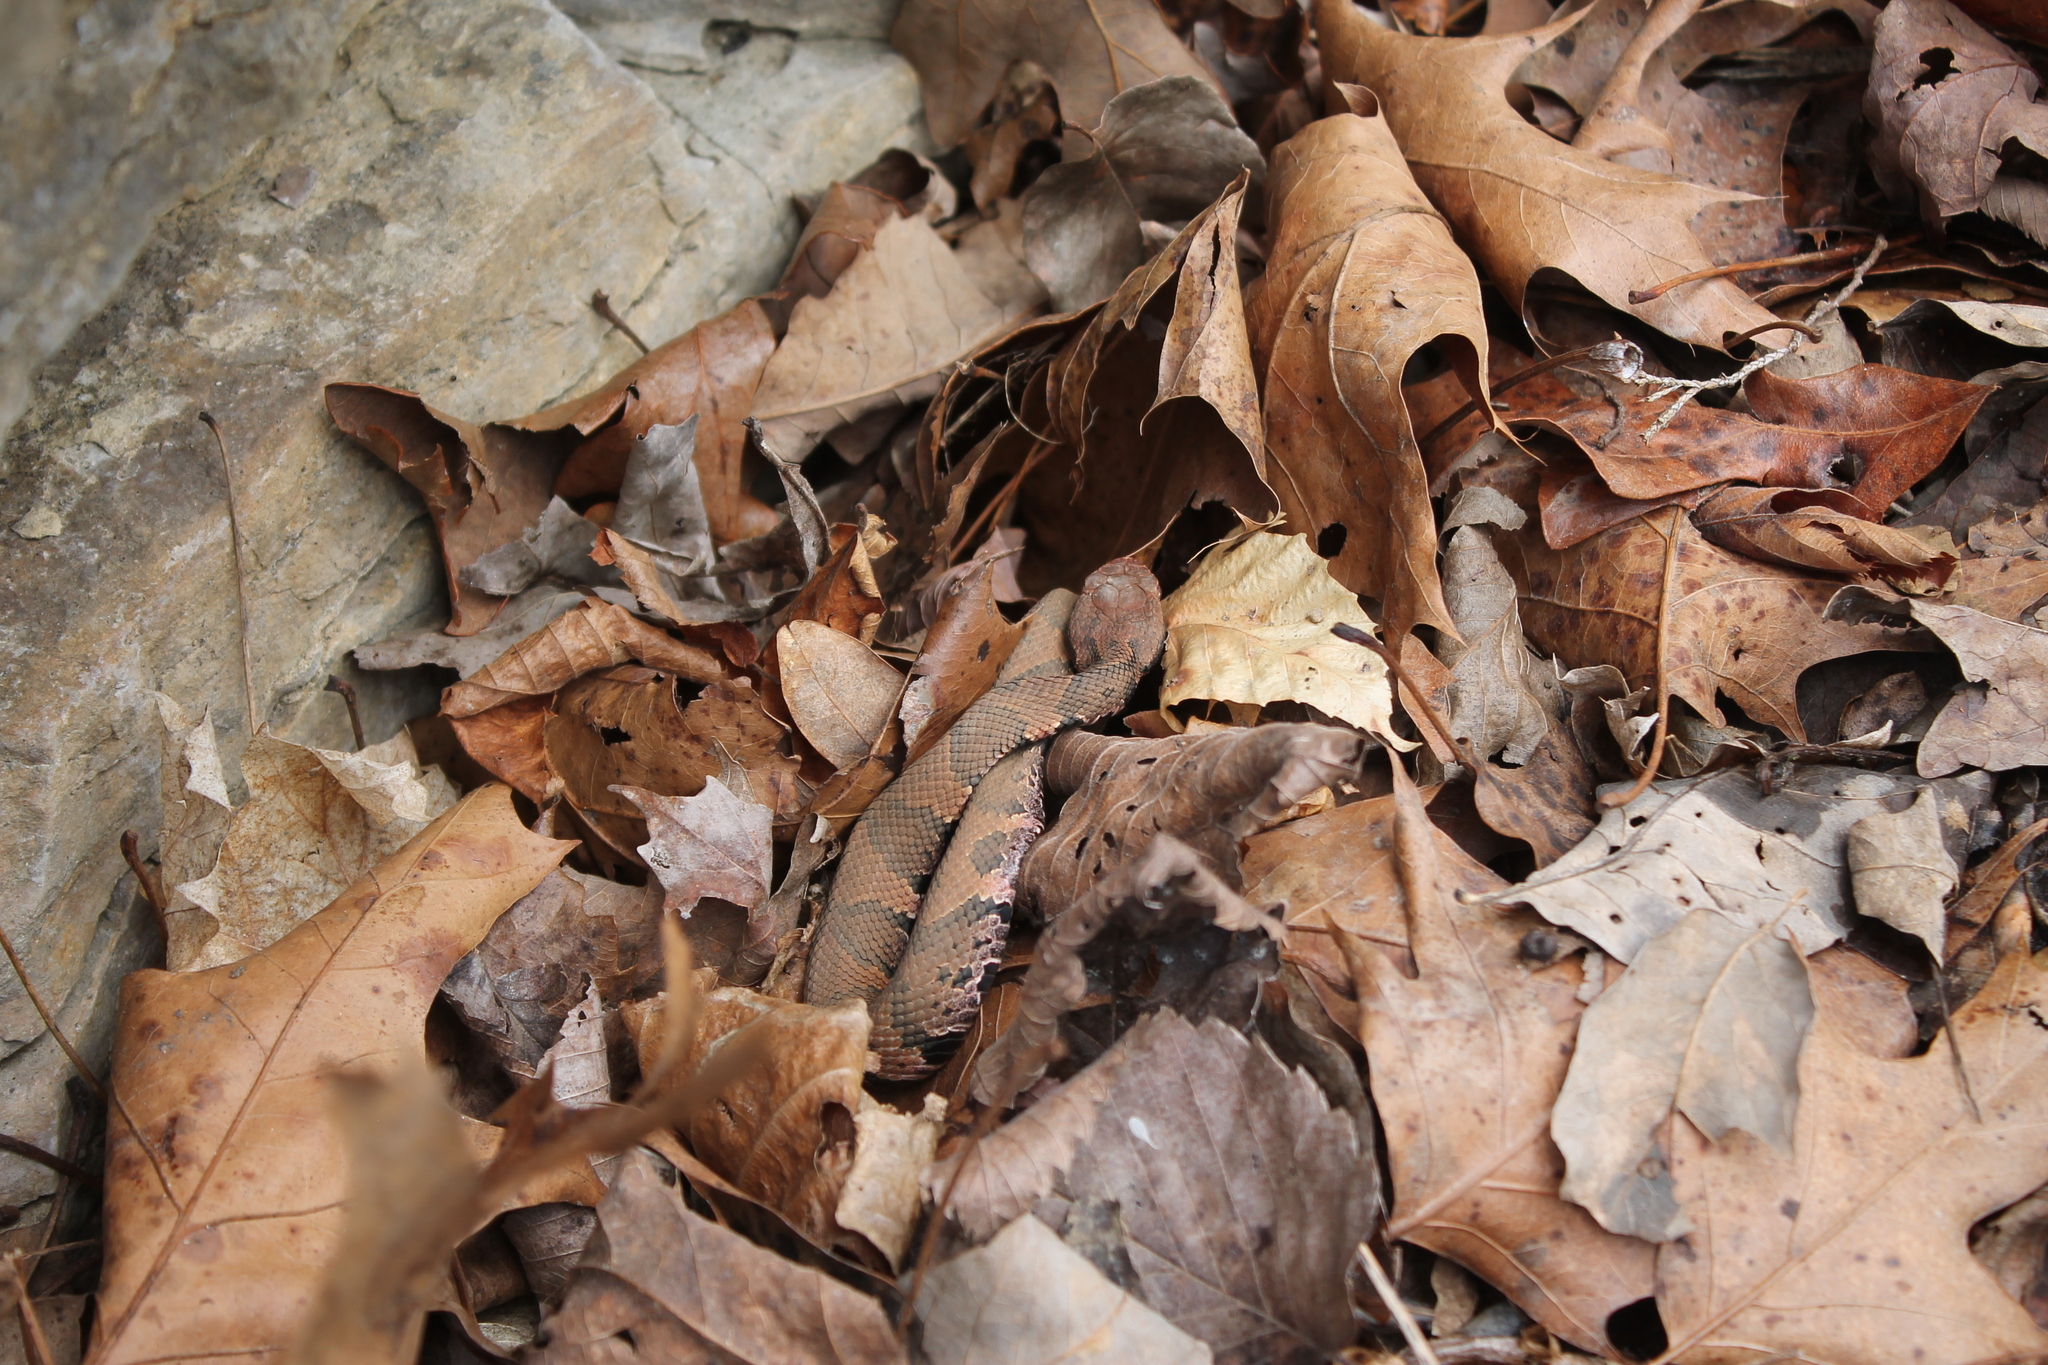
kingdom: Animalia
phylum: Chordata
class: Squamata
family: Viperidae
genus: Agkistrodon
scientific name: Agkistrodon piscivorus
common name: Cottonmouth
